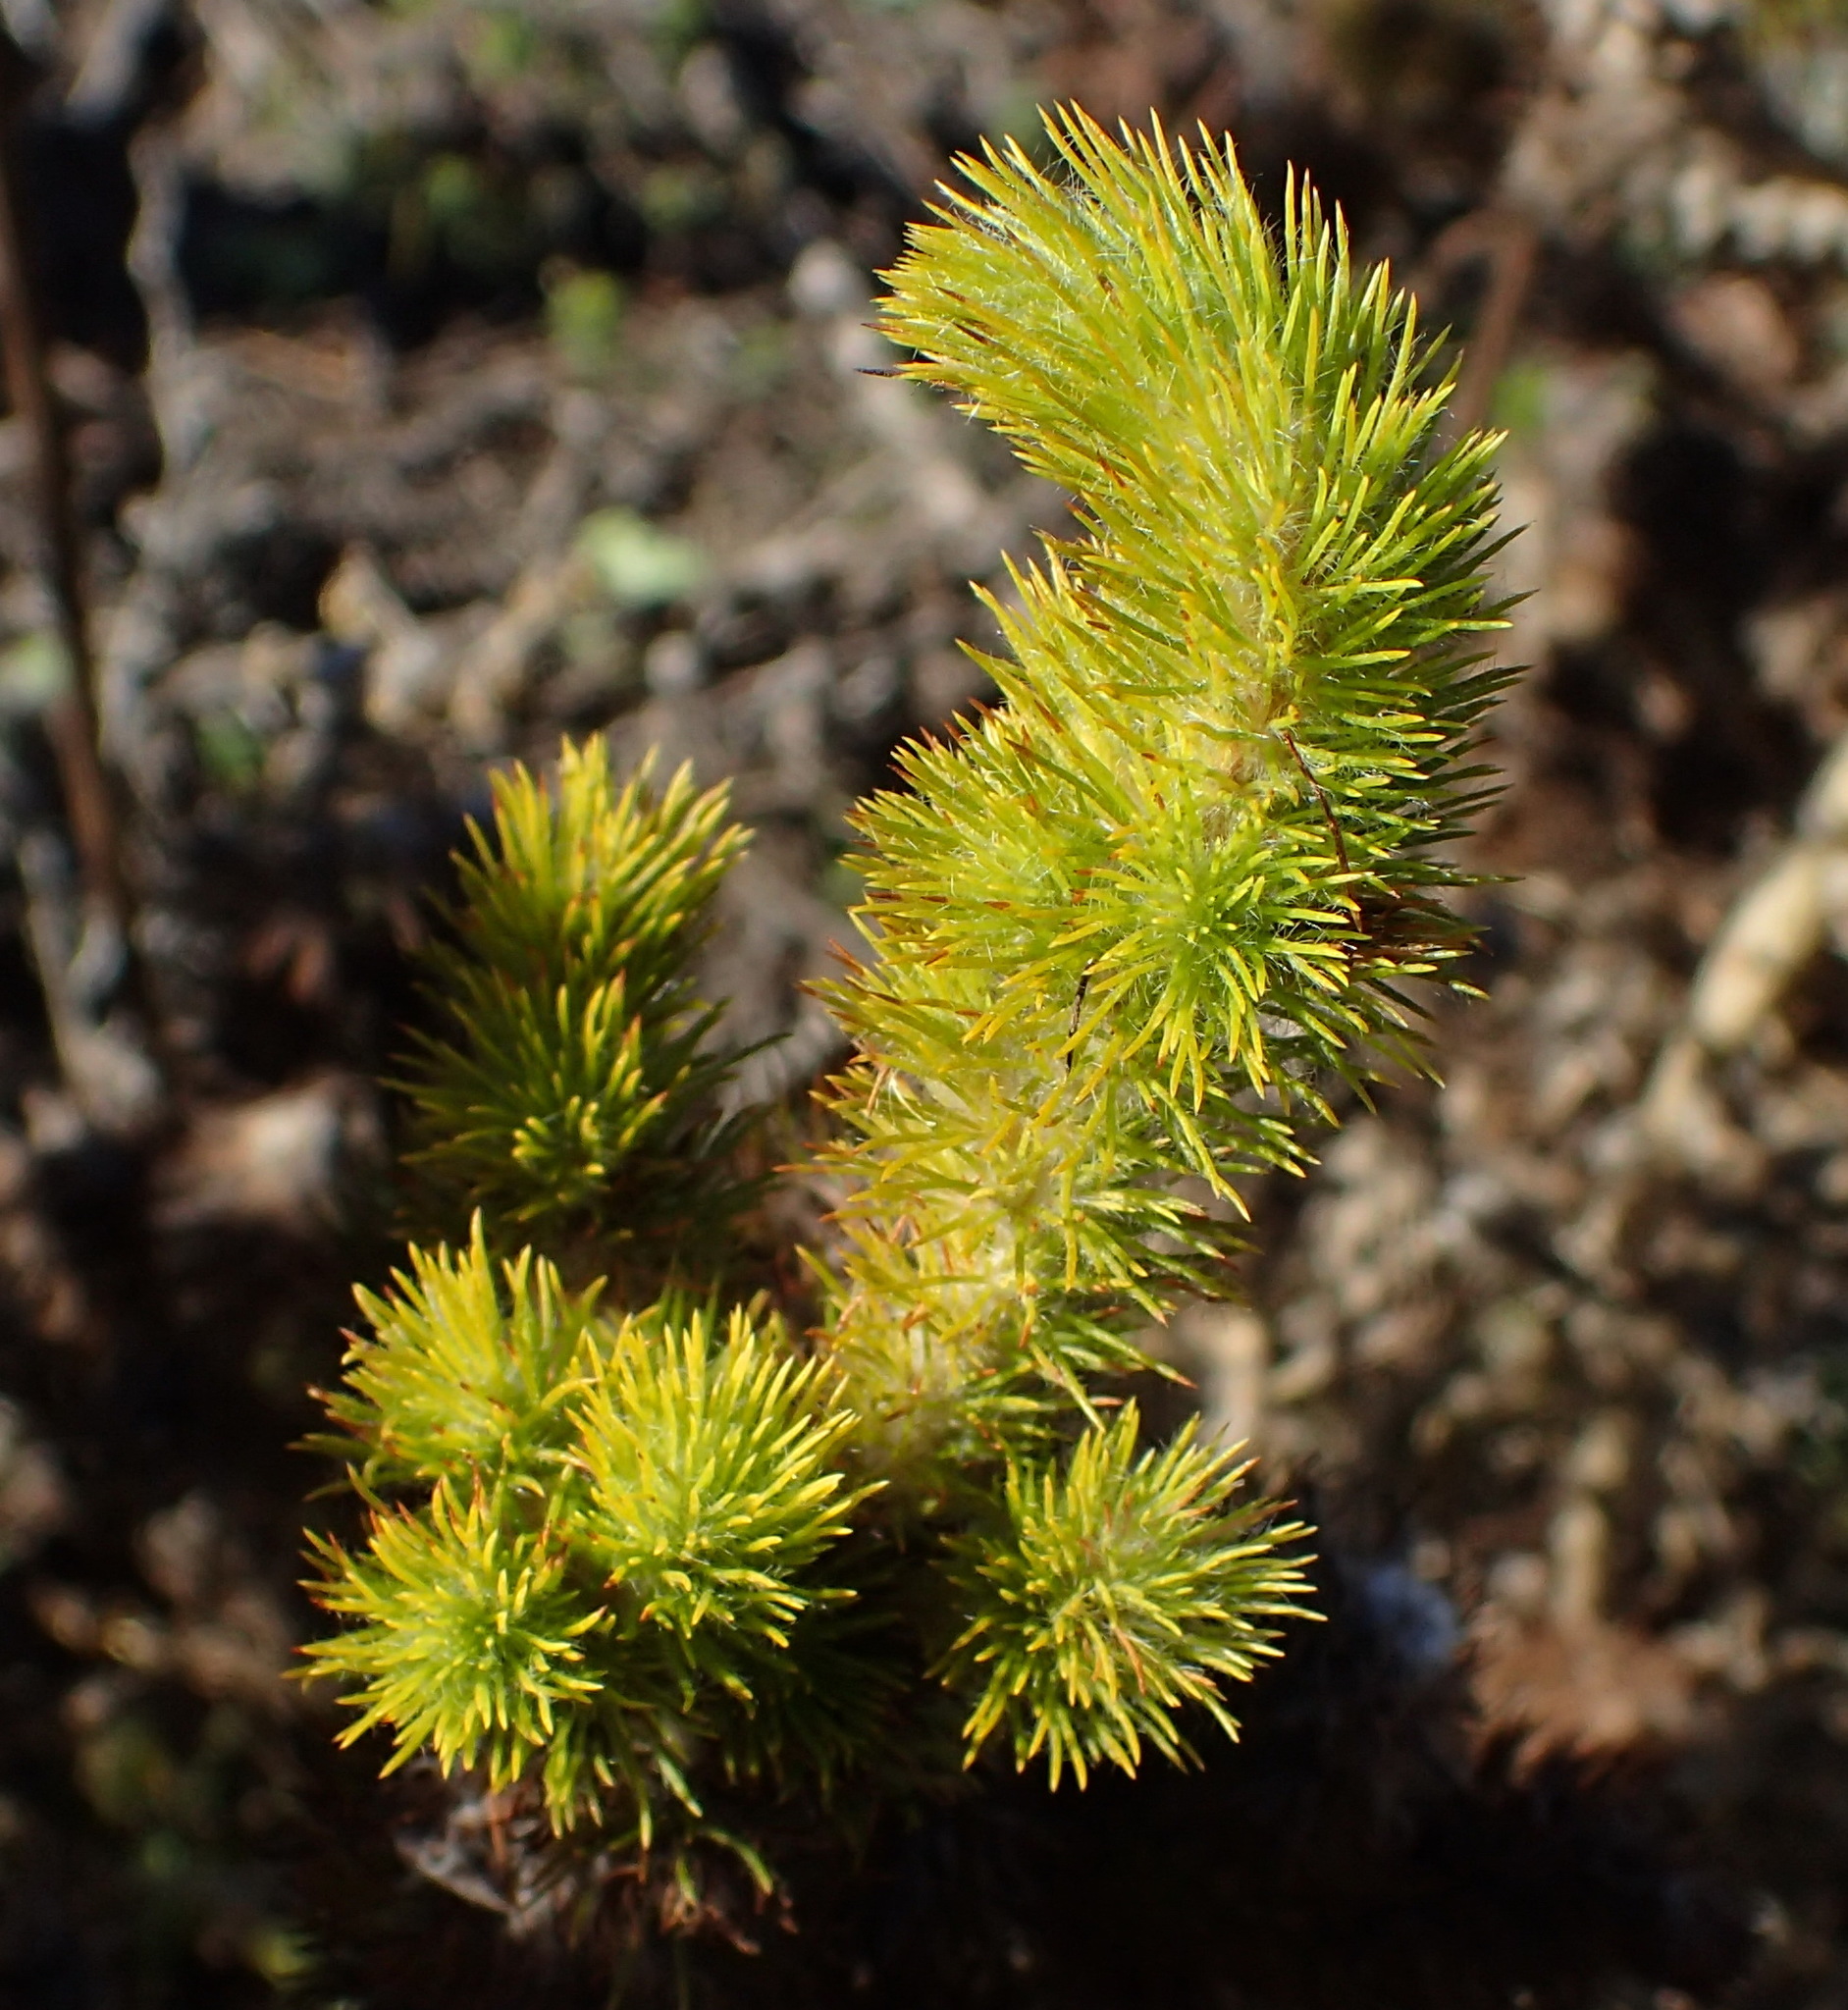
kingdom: Plantae
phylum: Tracheophyta
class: Magnoliopsida
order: Fabales
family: Fabaceae
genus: Aspalathus
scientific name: Aspalathus alopecurus
